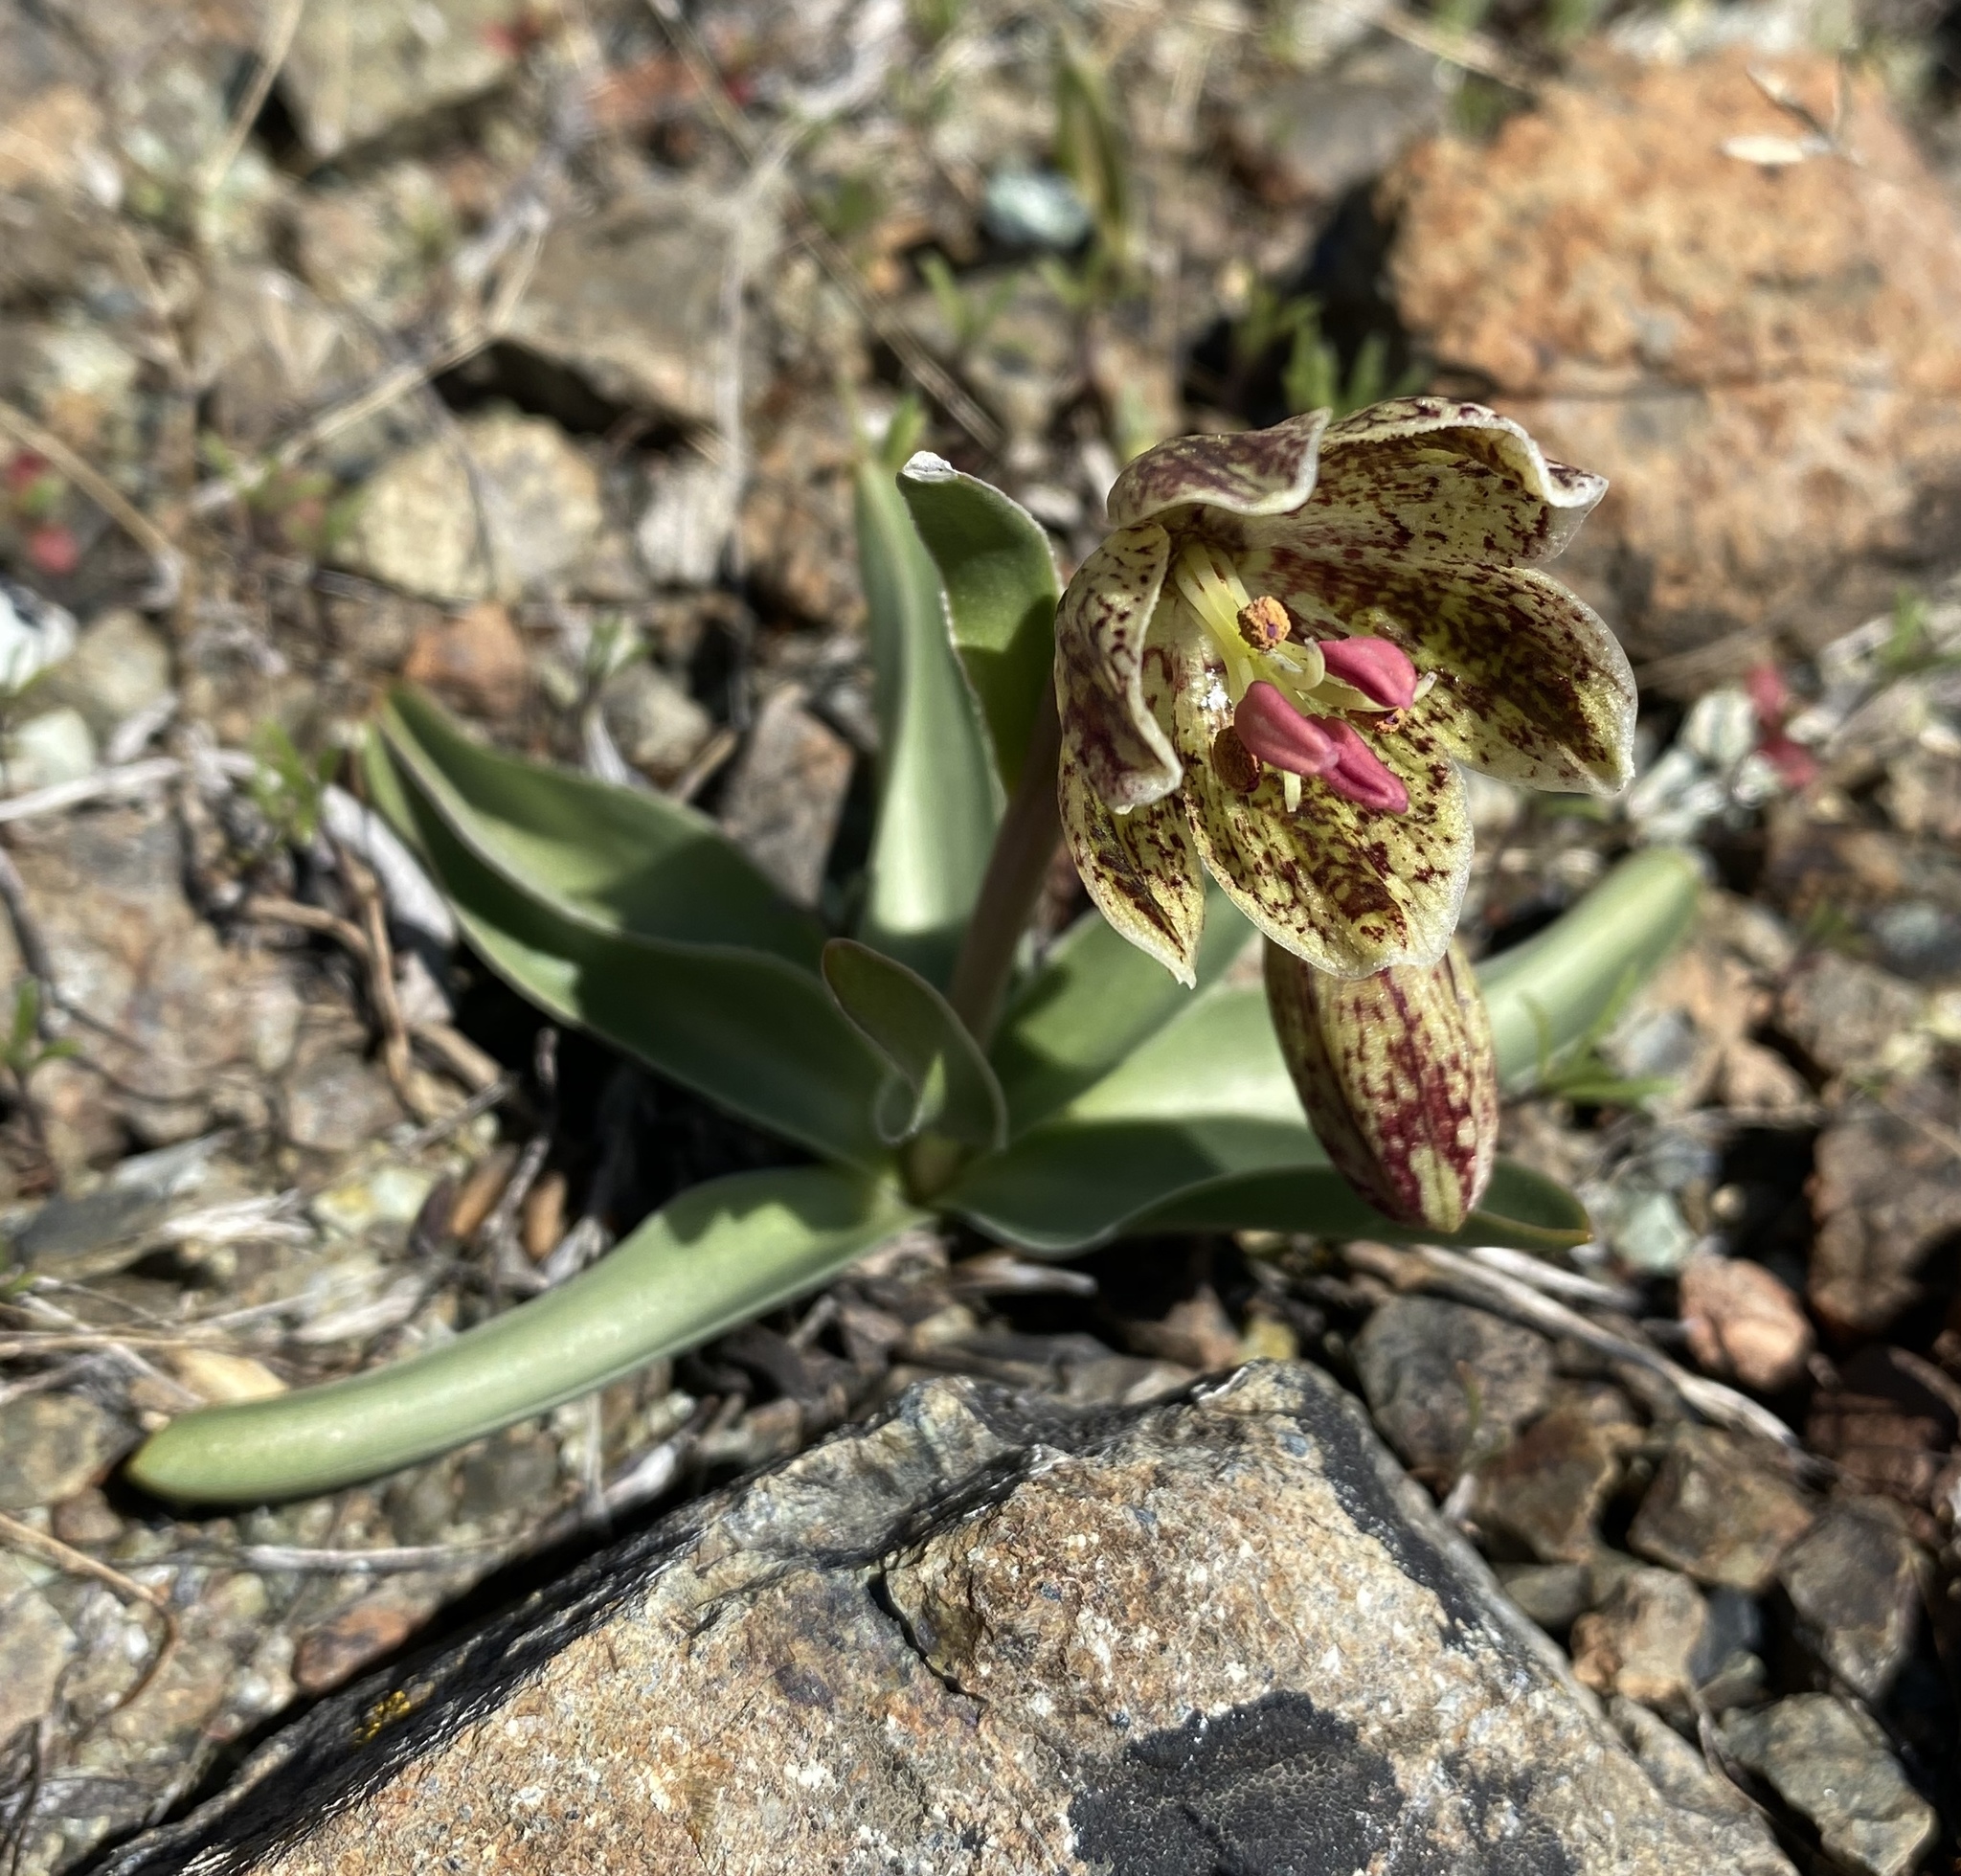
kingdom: Plantae
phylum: Tracheophyta
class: Liliopsida
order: Liliales
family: Liliaceae
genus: Fritillaria
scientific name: Fritillaria purdyi
